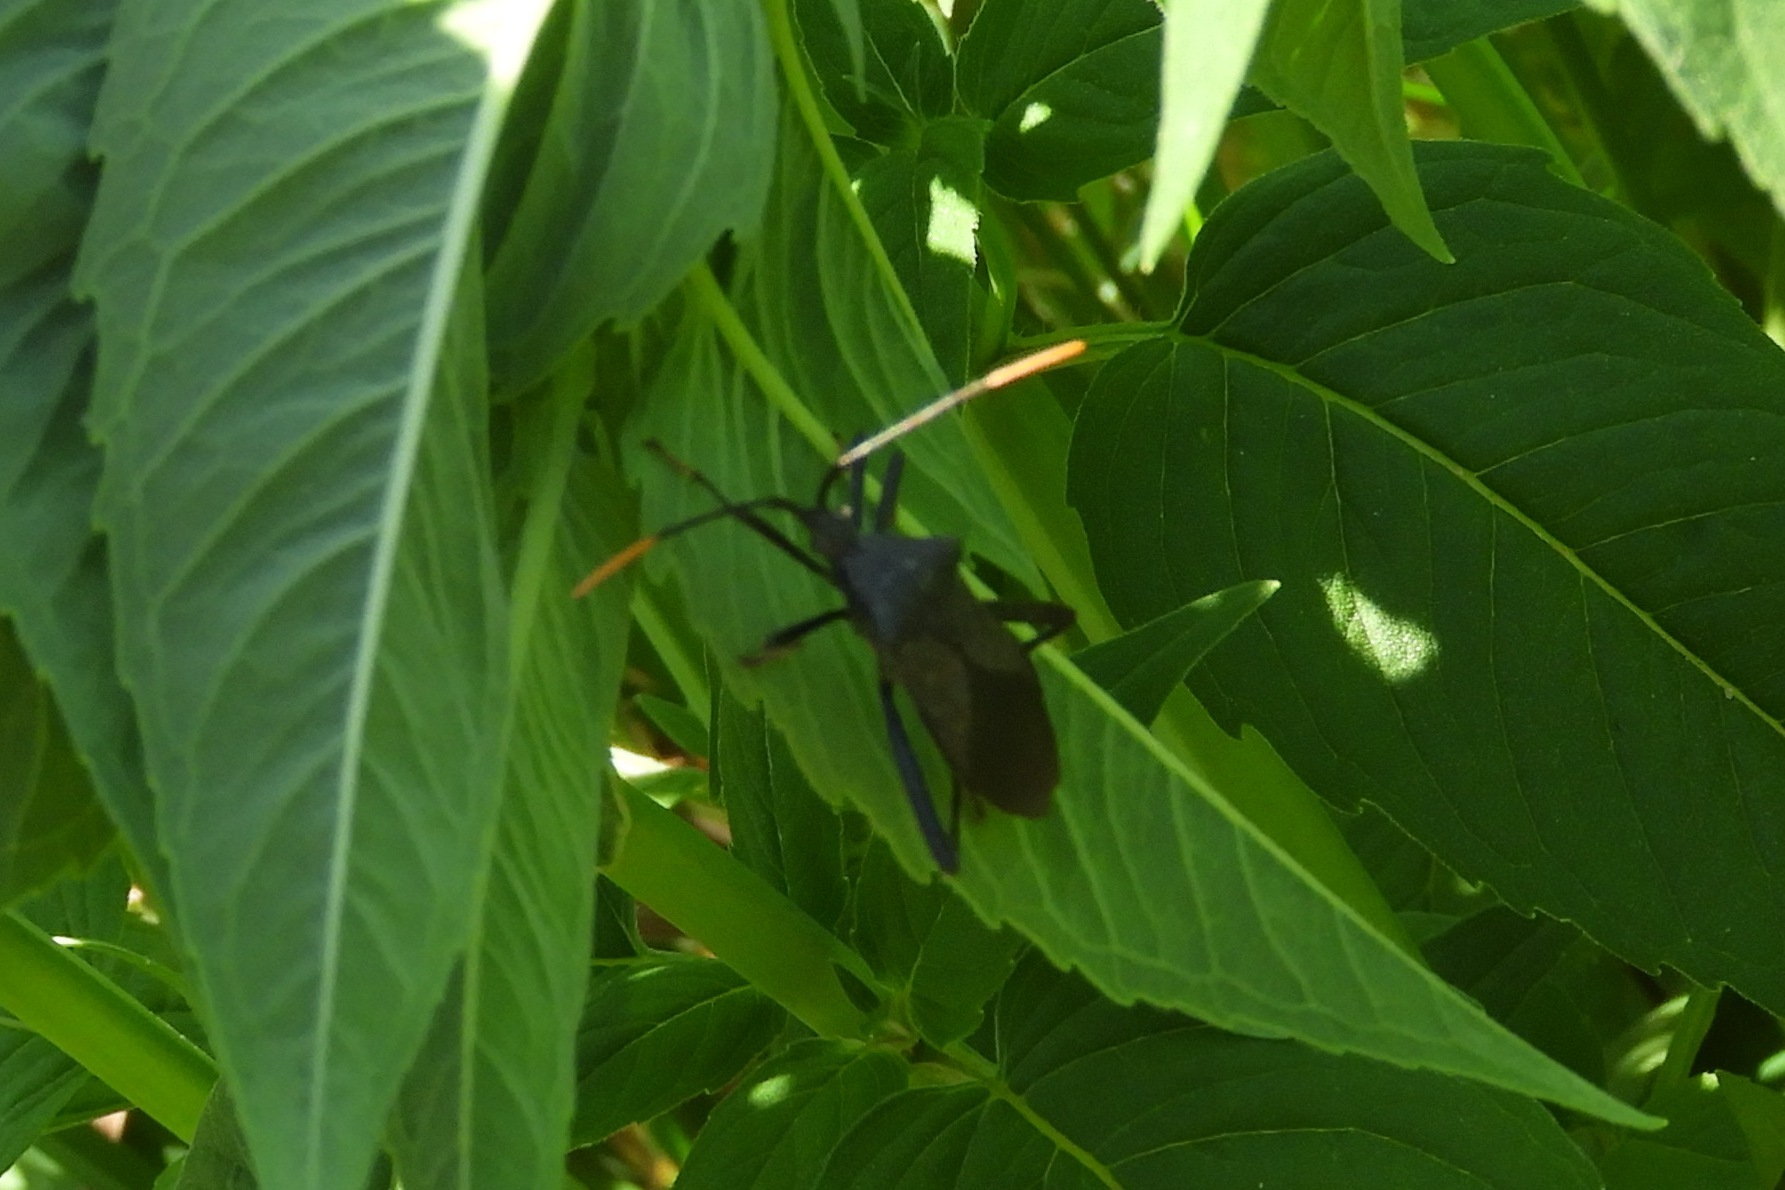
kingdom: Animalia
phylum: Arthropoda
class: Insecta
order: Hemiptera
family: Coreidae
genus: Acanthocephala
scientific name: Acanthocephala terminalis
